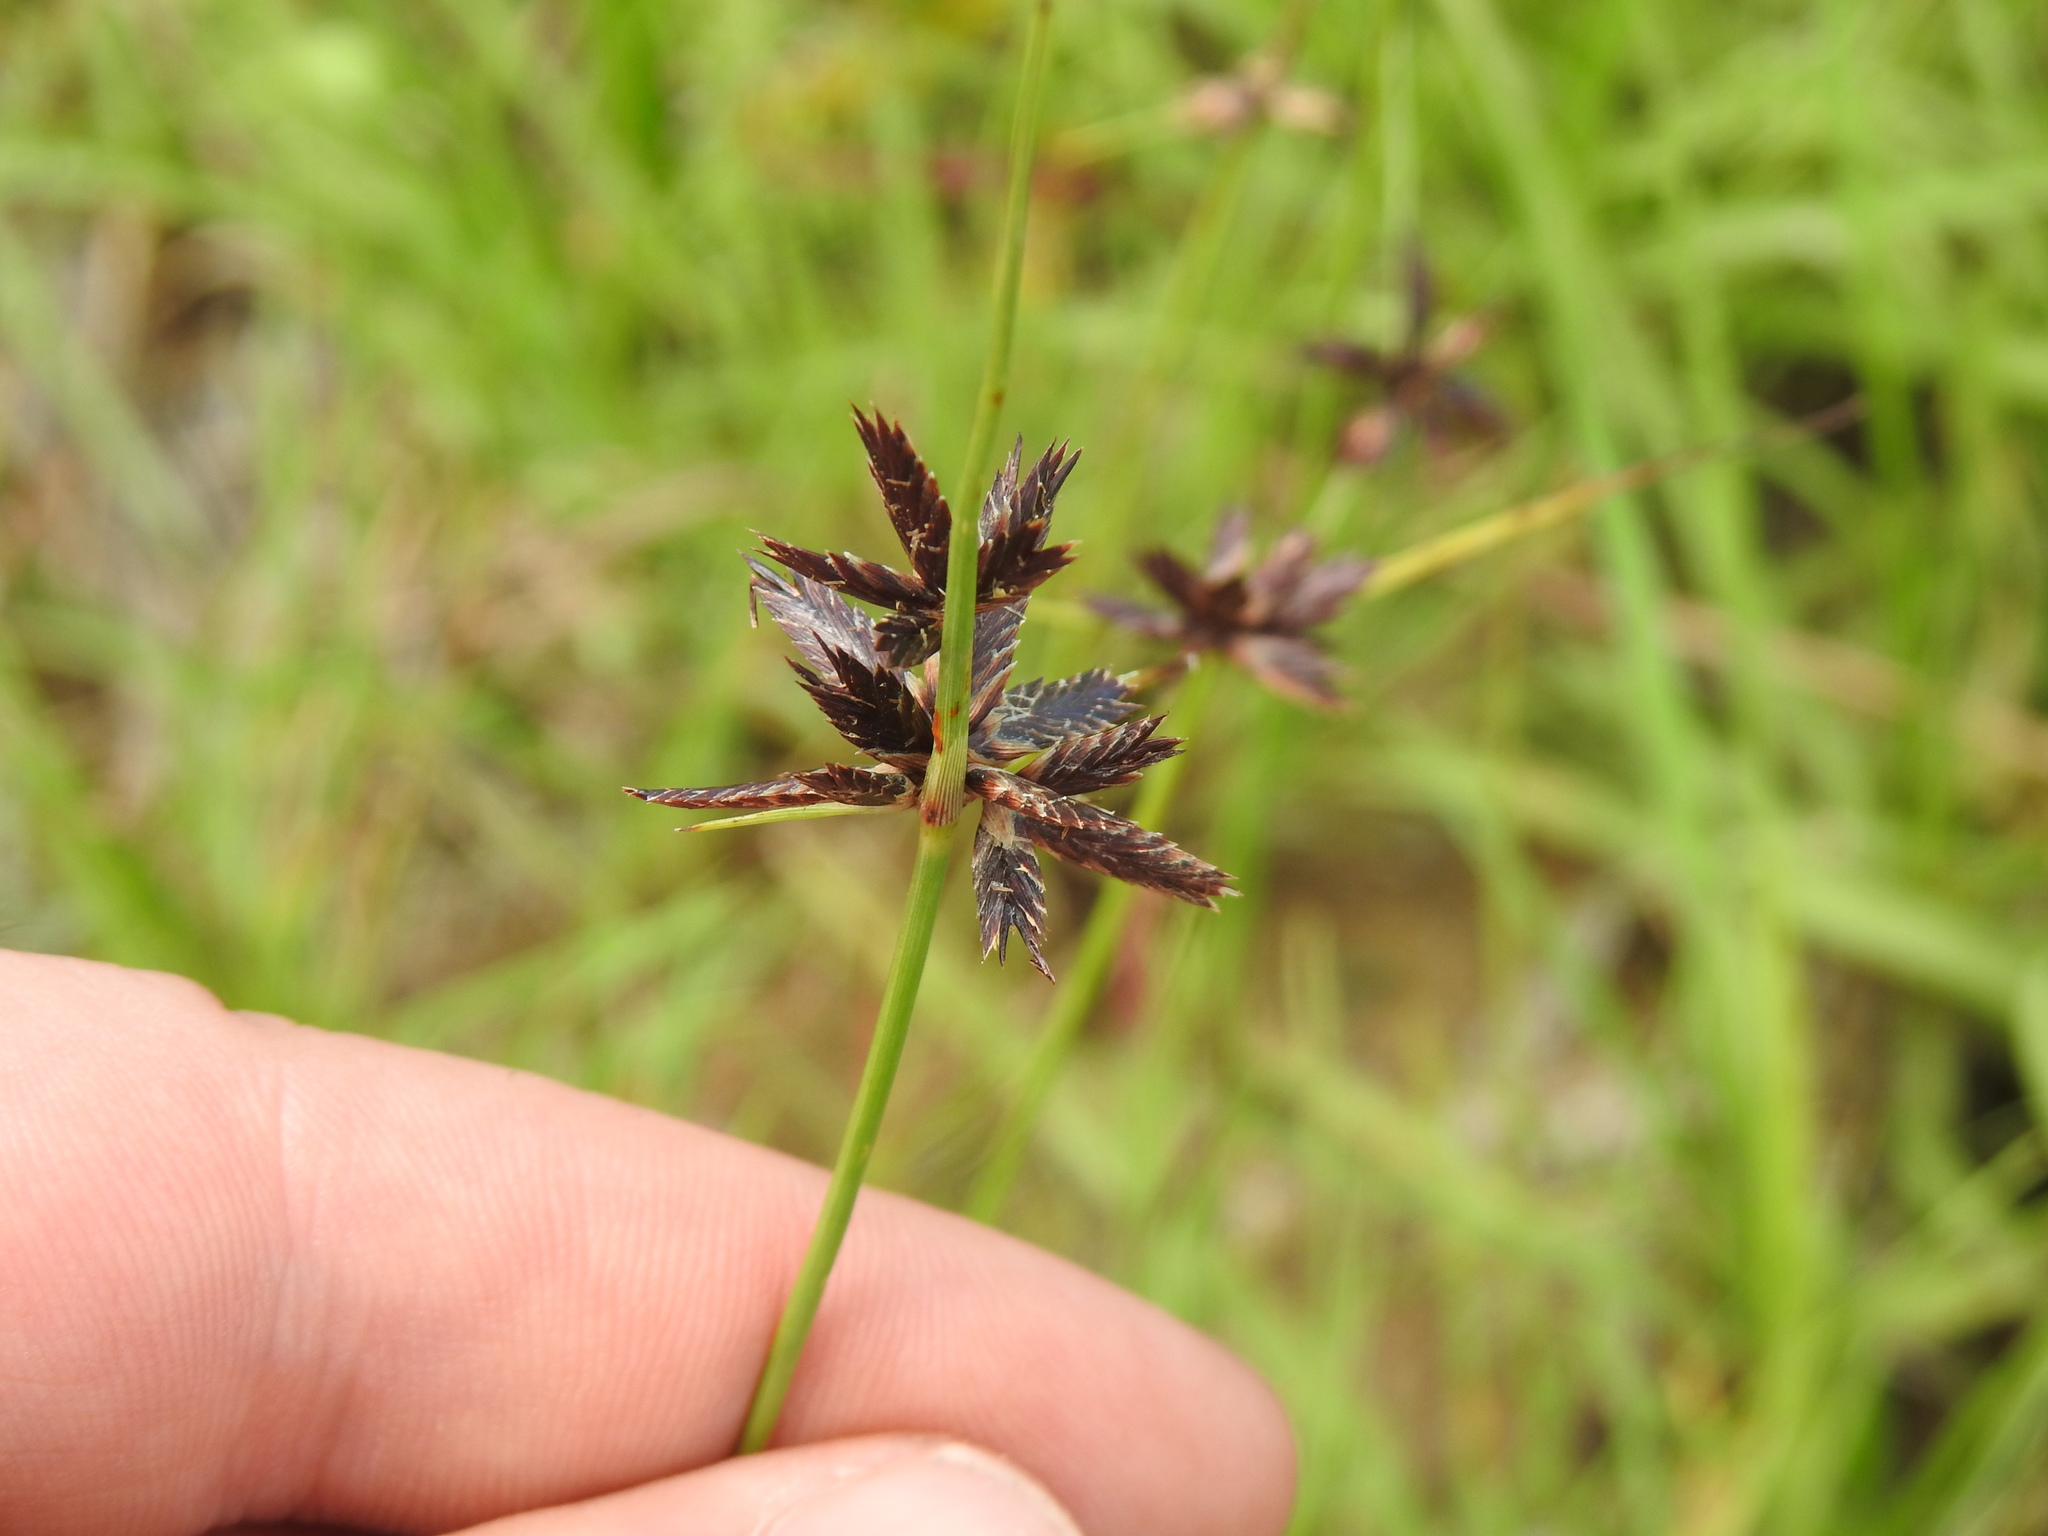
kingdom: Plantae
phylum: Tracheophyta
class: Liliopsida
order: Poales
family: Cyperaceae
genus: Cyperus
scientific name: Cyperus semitrifidus
